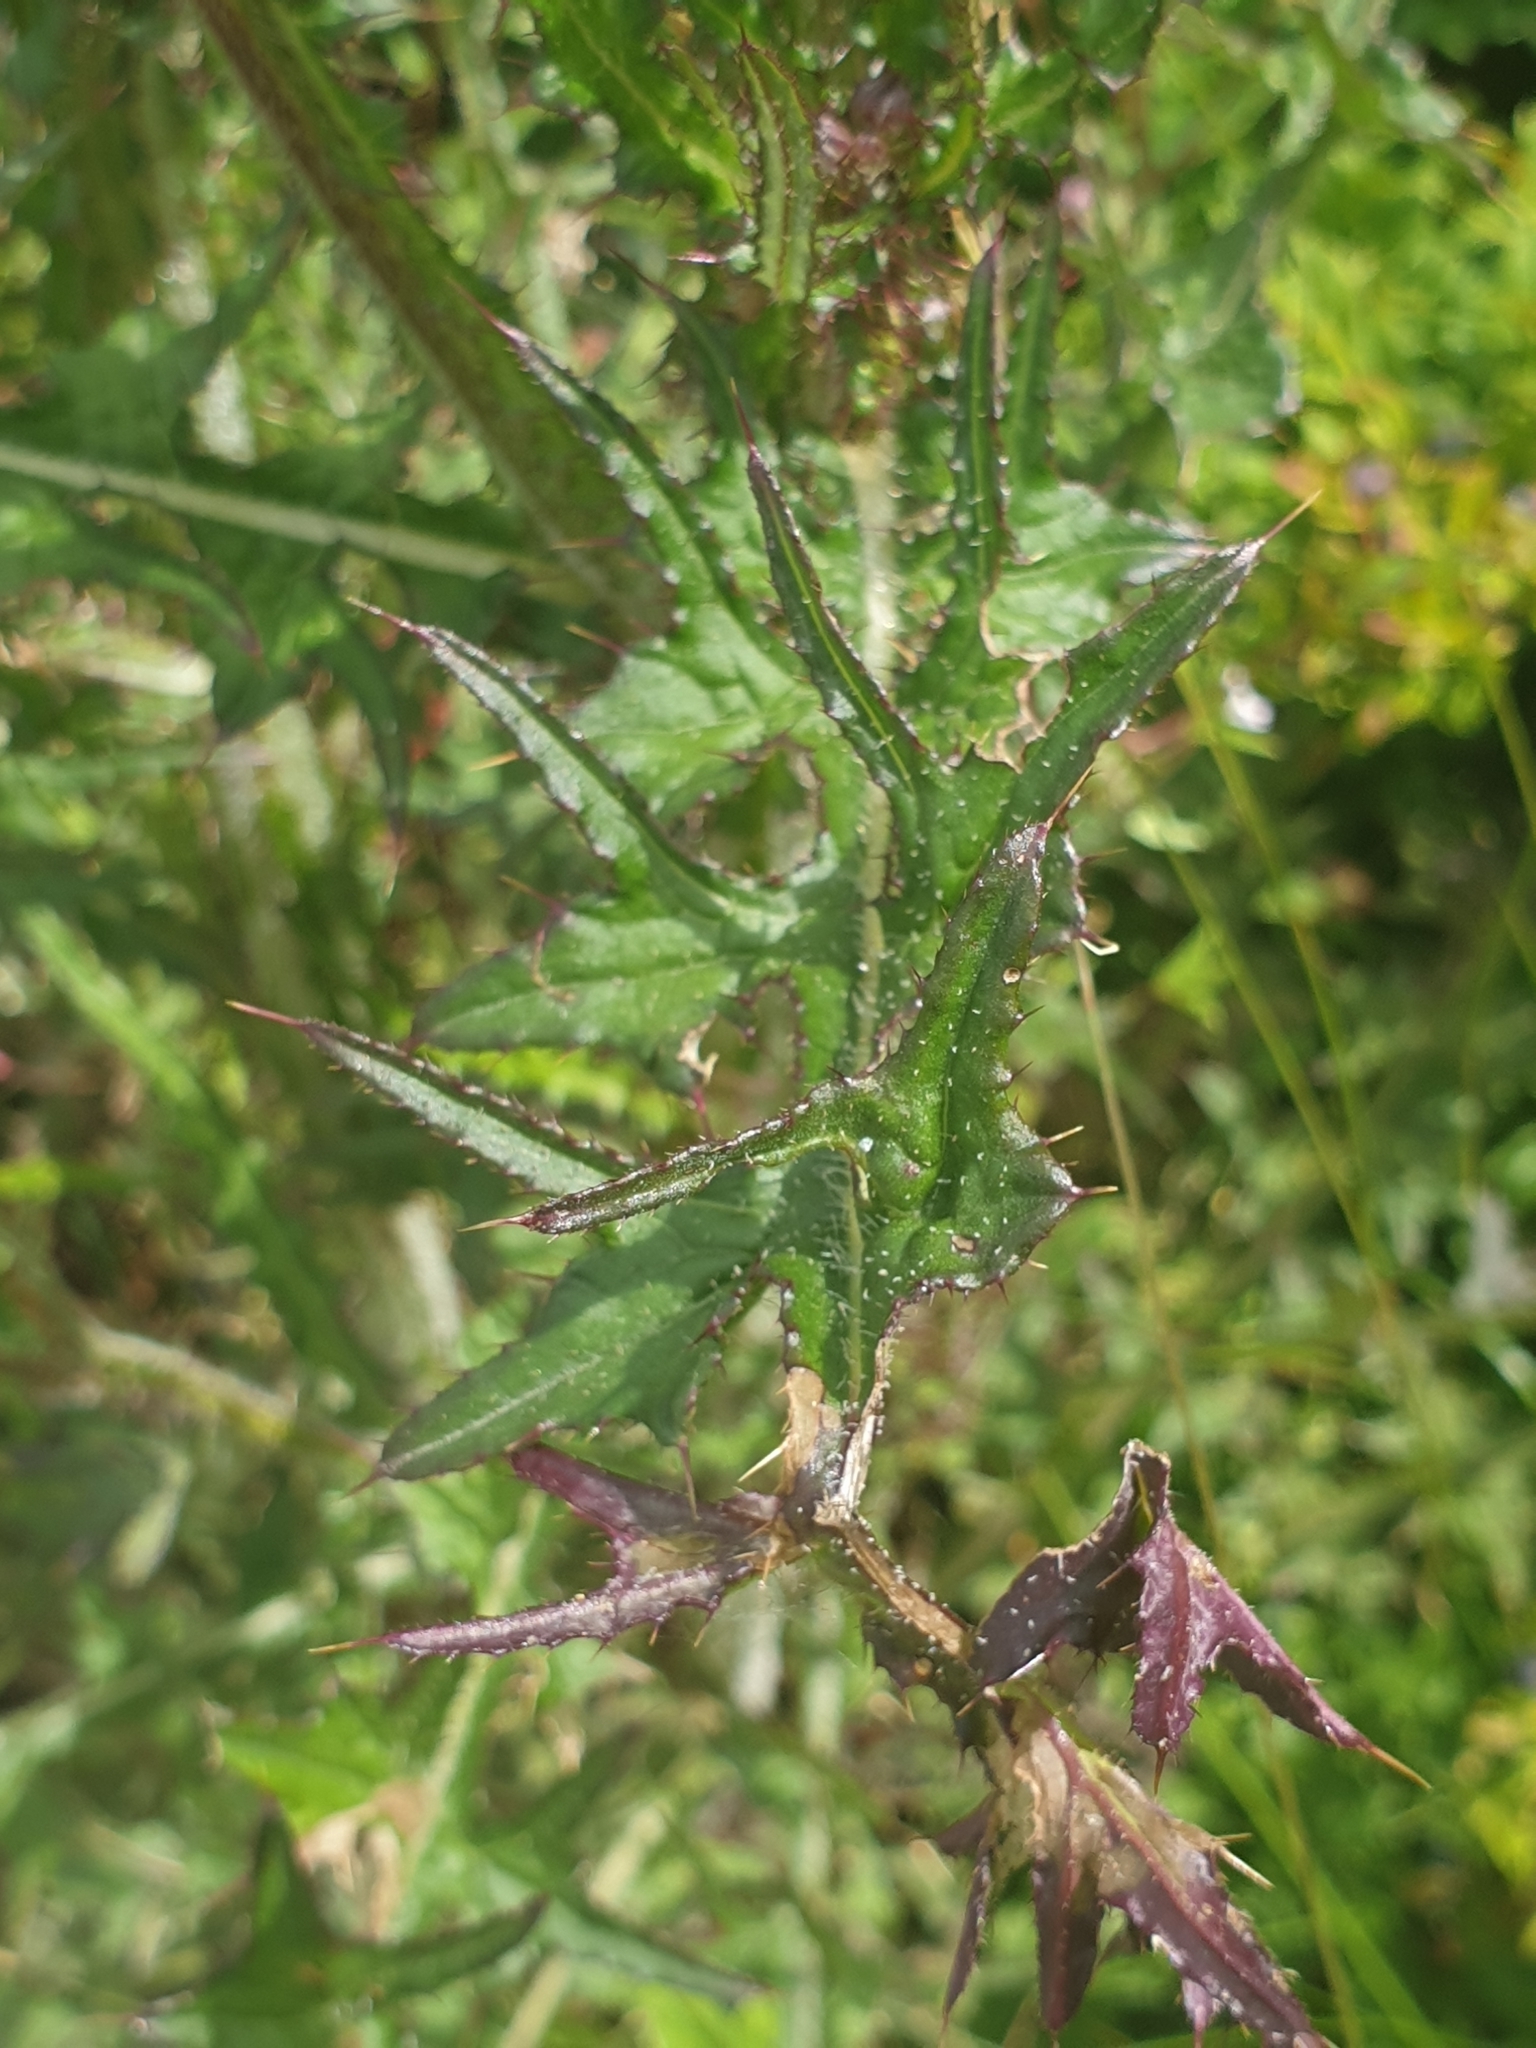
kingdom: Plantae
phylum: Tracheophyta
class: Magnoliopsida
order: Asterales
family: Asteraceae
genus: Cirsium
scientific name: Cirsium palustre
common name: Marsh thistle
